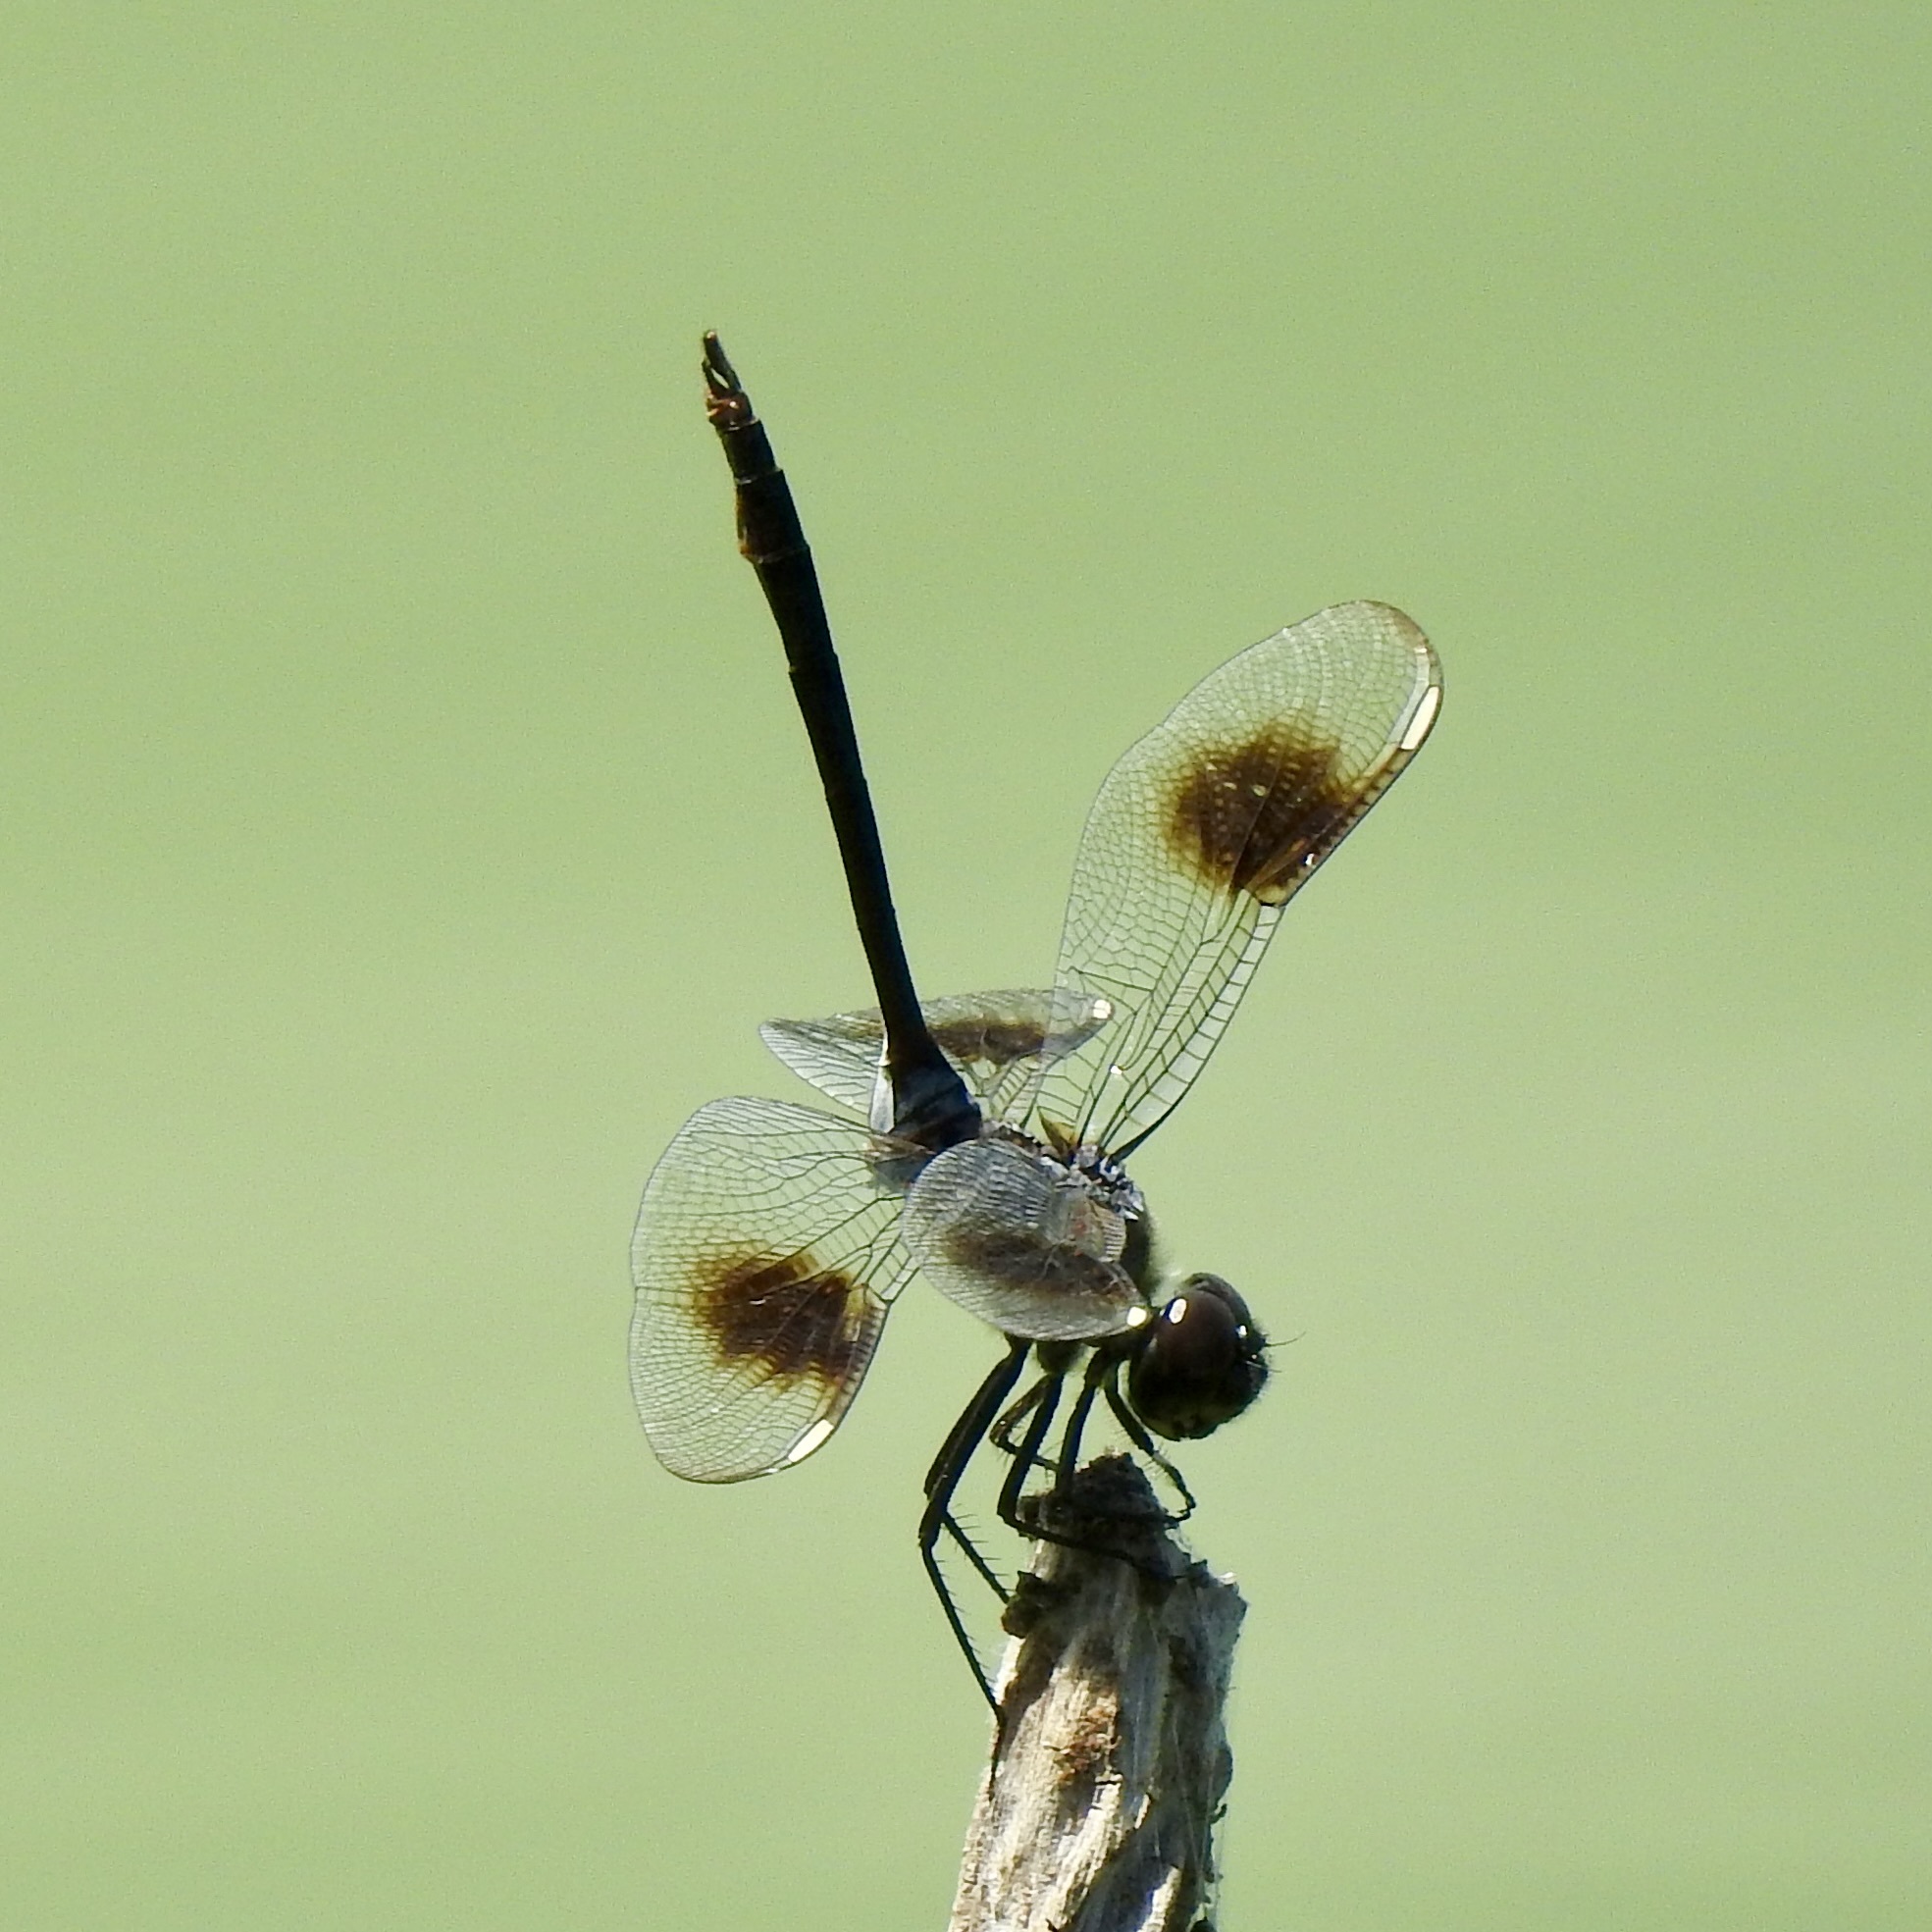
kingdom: Animalia
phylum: Arthropoda
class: Insecta
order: Odonata
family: Libellulidae
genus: Brachymesia
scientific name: Brachymesia gravida
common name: Four-spotted pennant
